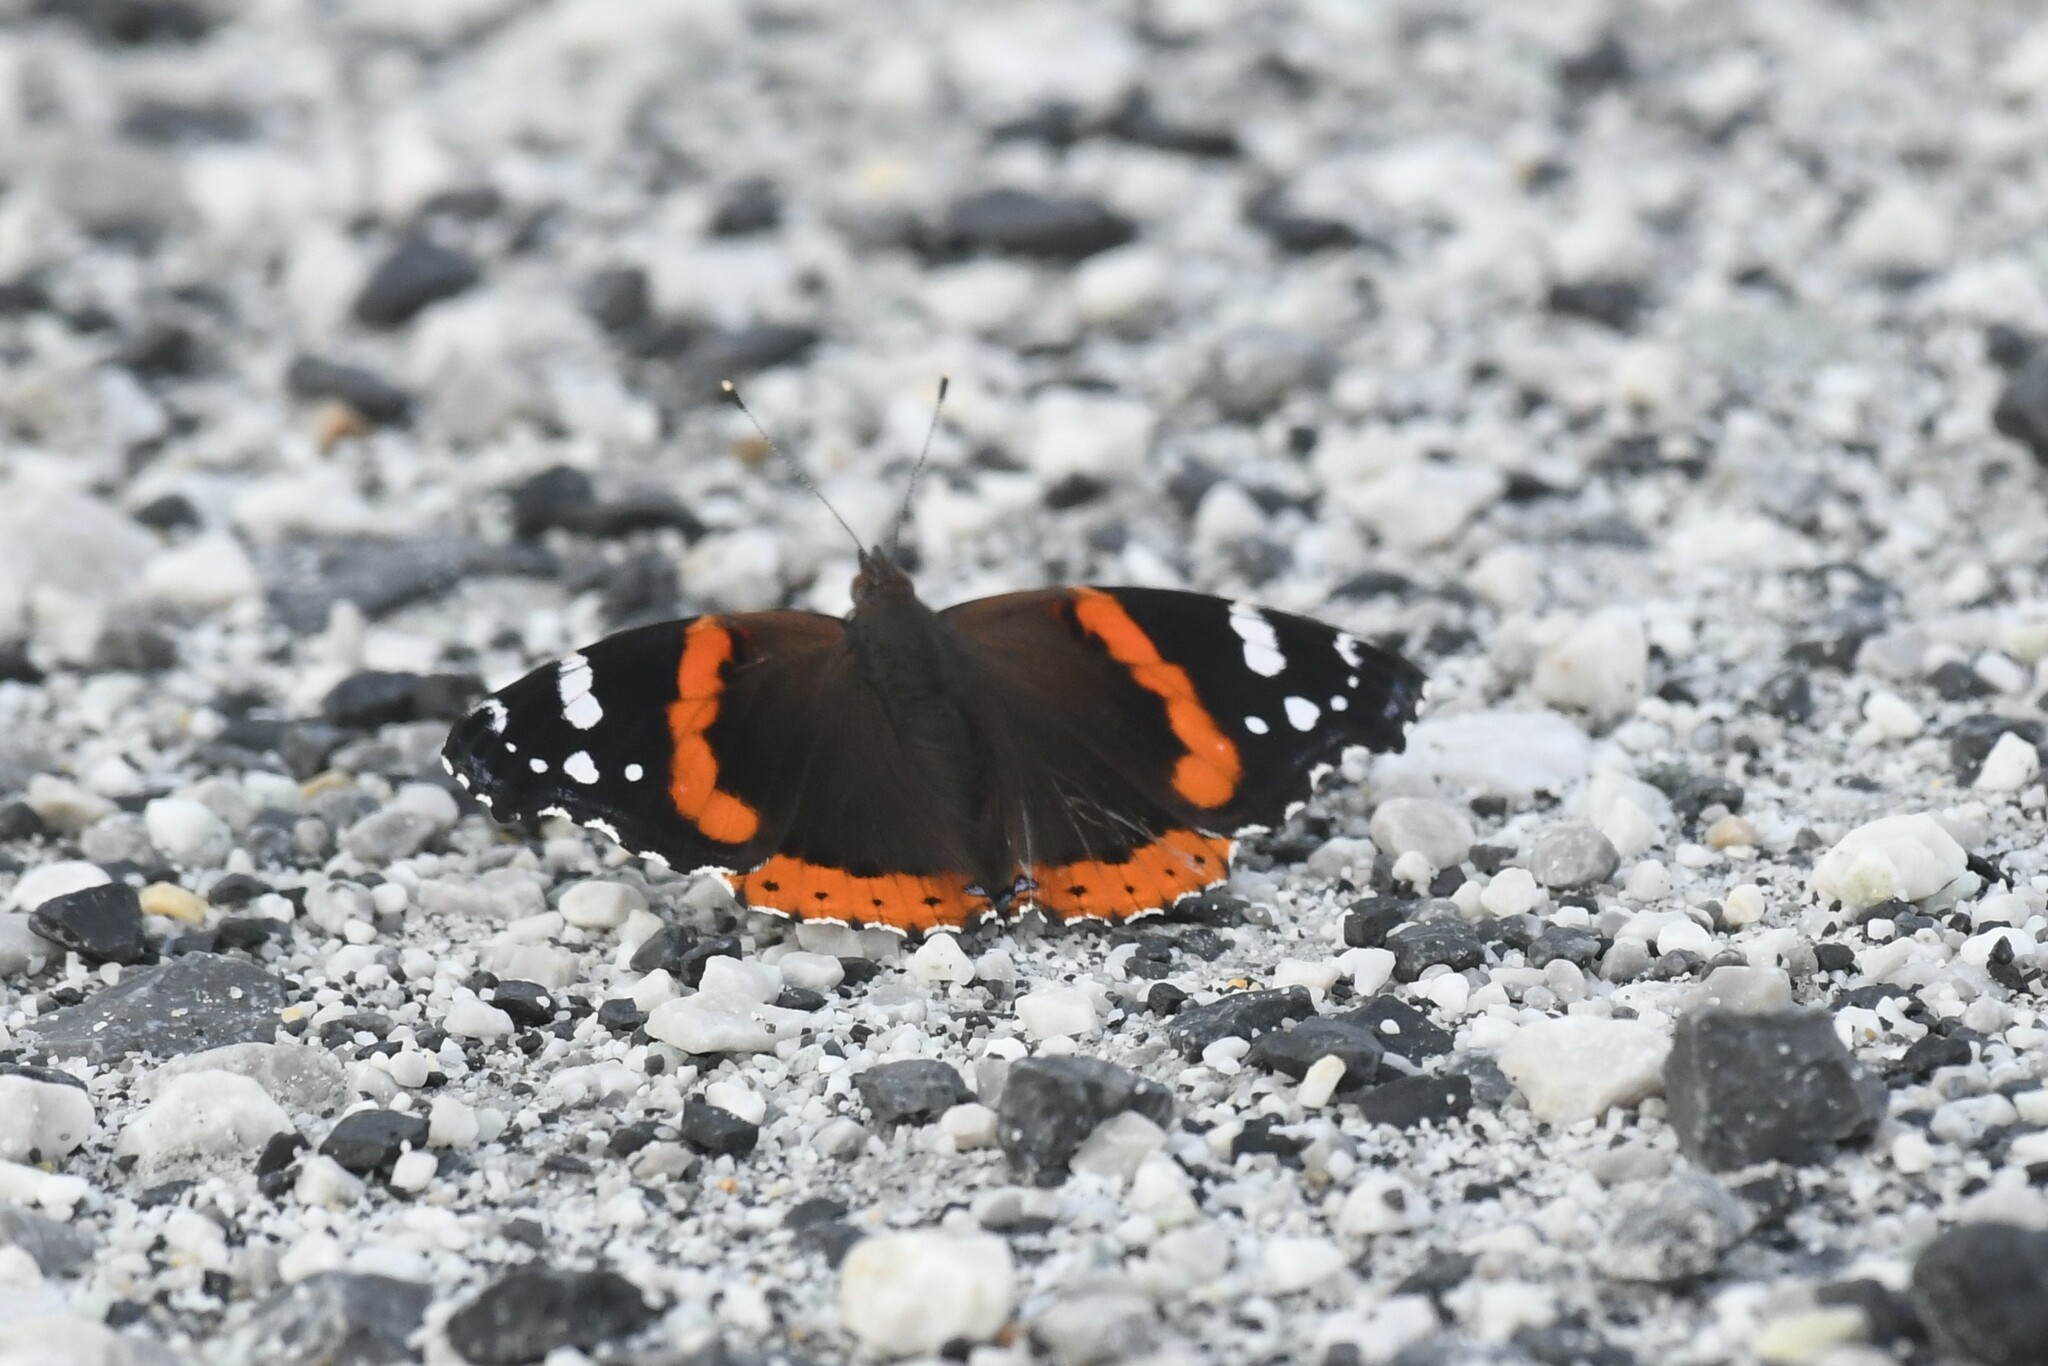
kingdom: Animalia
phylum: Arthropoda
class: Insecta
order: Lepidoptera
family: Nymphalidae
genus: Vanessa
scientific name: Vanessa atalanta
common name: Red admiral
